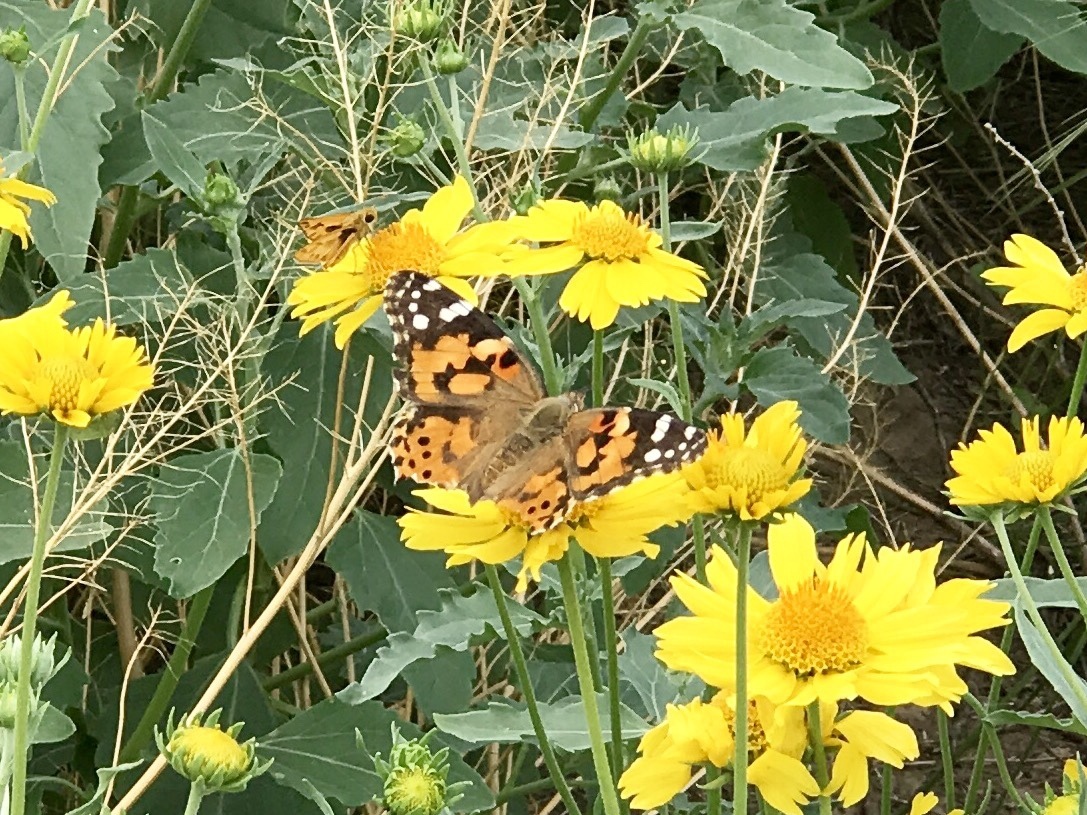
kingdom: Animalia
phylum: Arthropoda
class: Insecta
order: Lepidoptera
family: Nymphalidae
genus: Vanessa
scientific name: Vanessa cardui
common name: Painted lady
